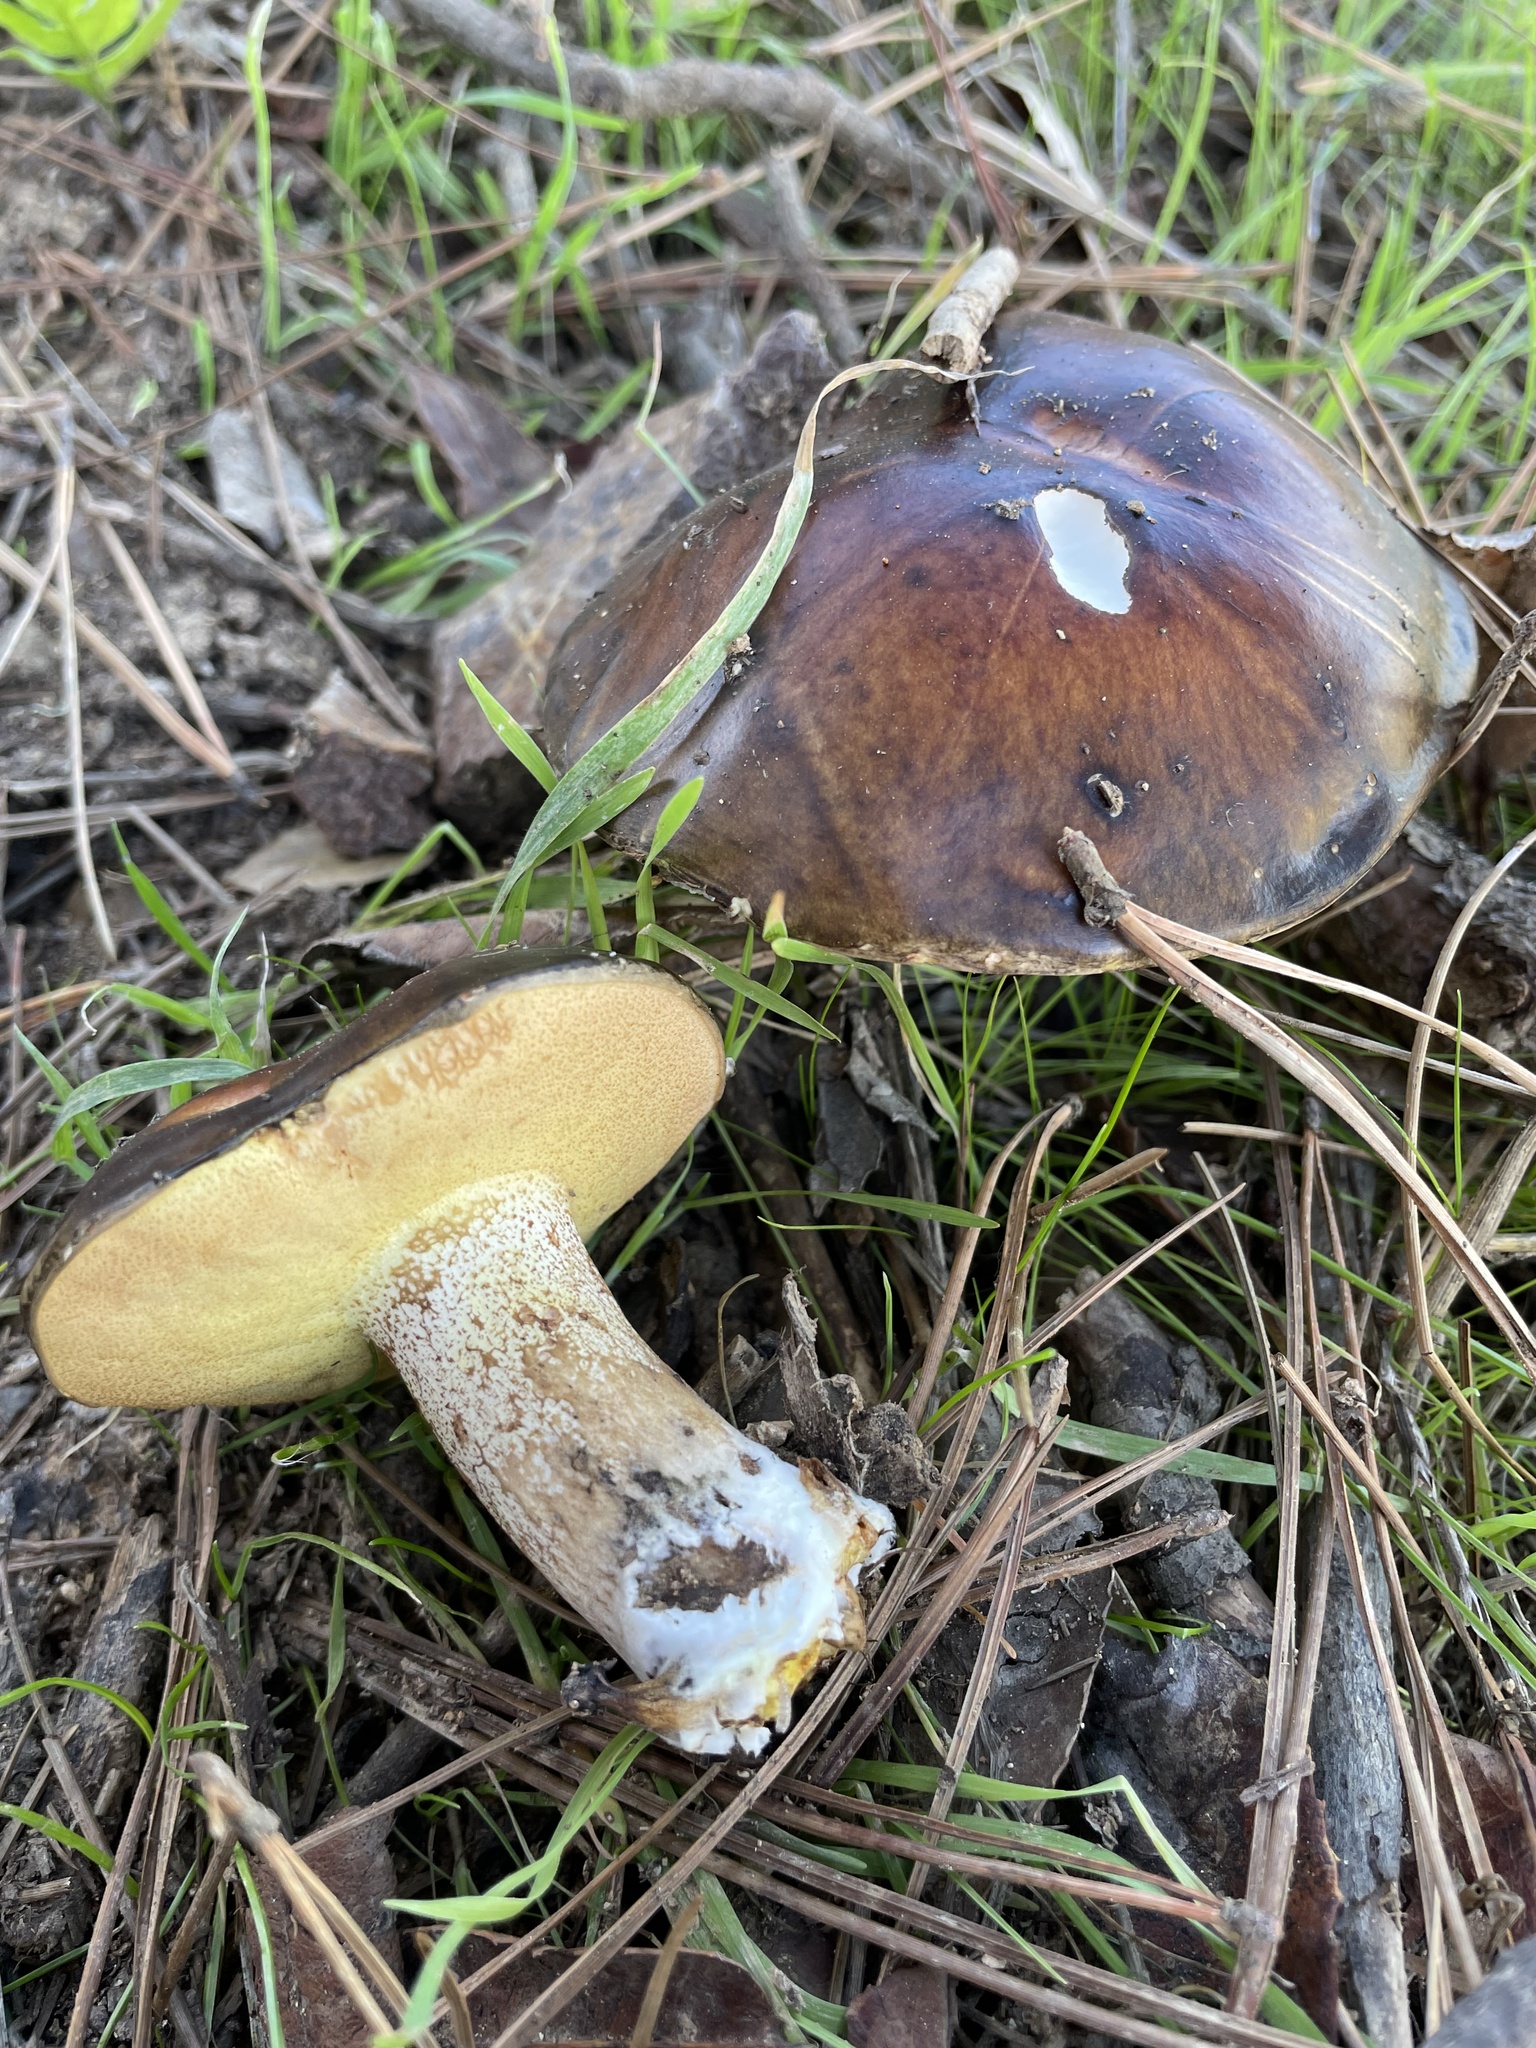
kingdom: Fungi
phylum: Basidiomycota
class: Agaricomycetes
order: Boletales
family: Suillaceae
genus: Suillus
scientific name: Suillus pungens
